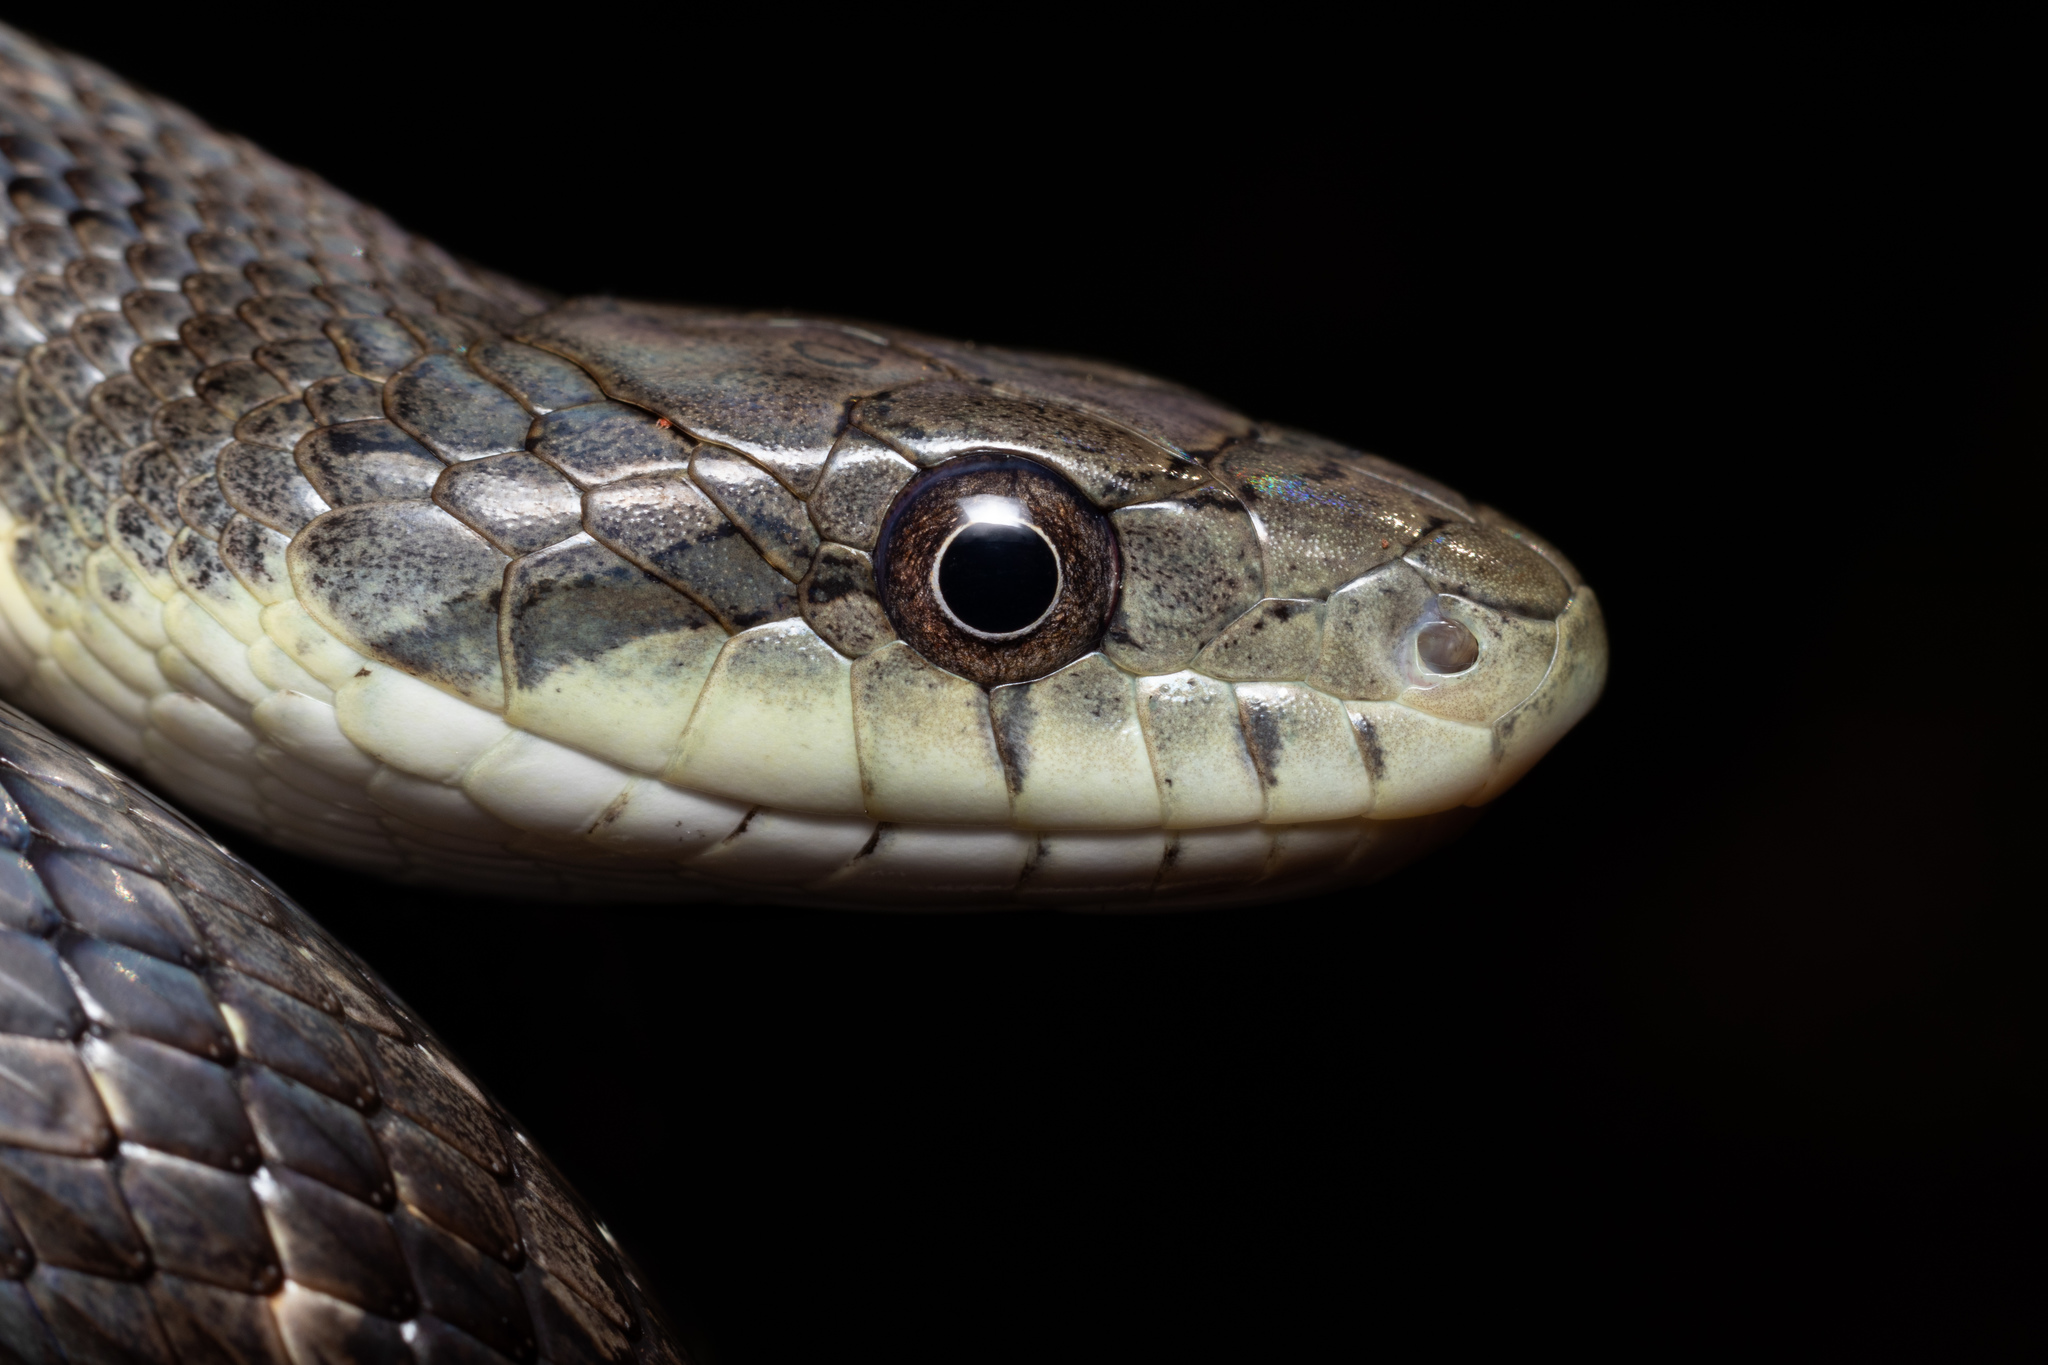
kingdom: Animalia
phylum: Chordata
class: Squamata
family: Colubridae
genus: Pantherophis
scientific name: Pantherophis alleghaniensis
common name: Eastern rat snake
